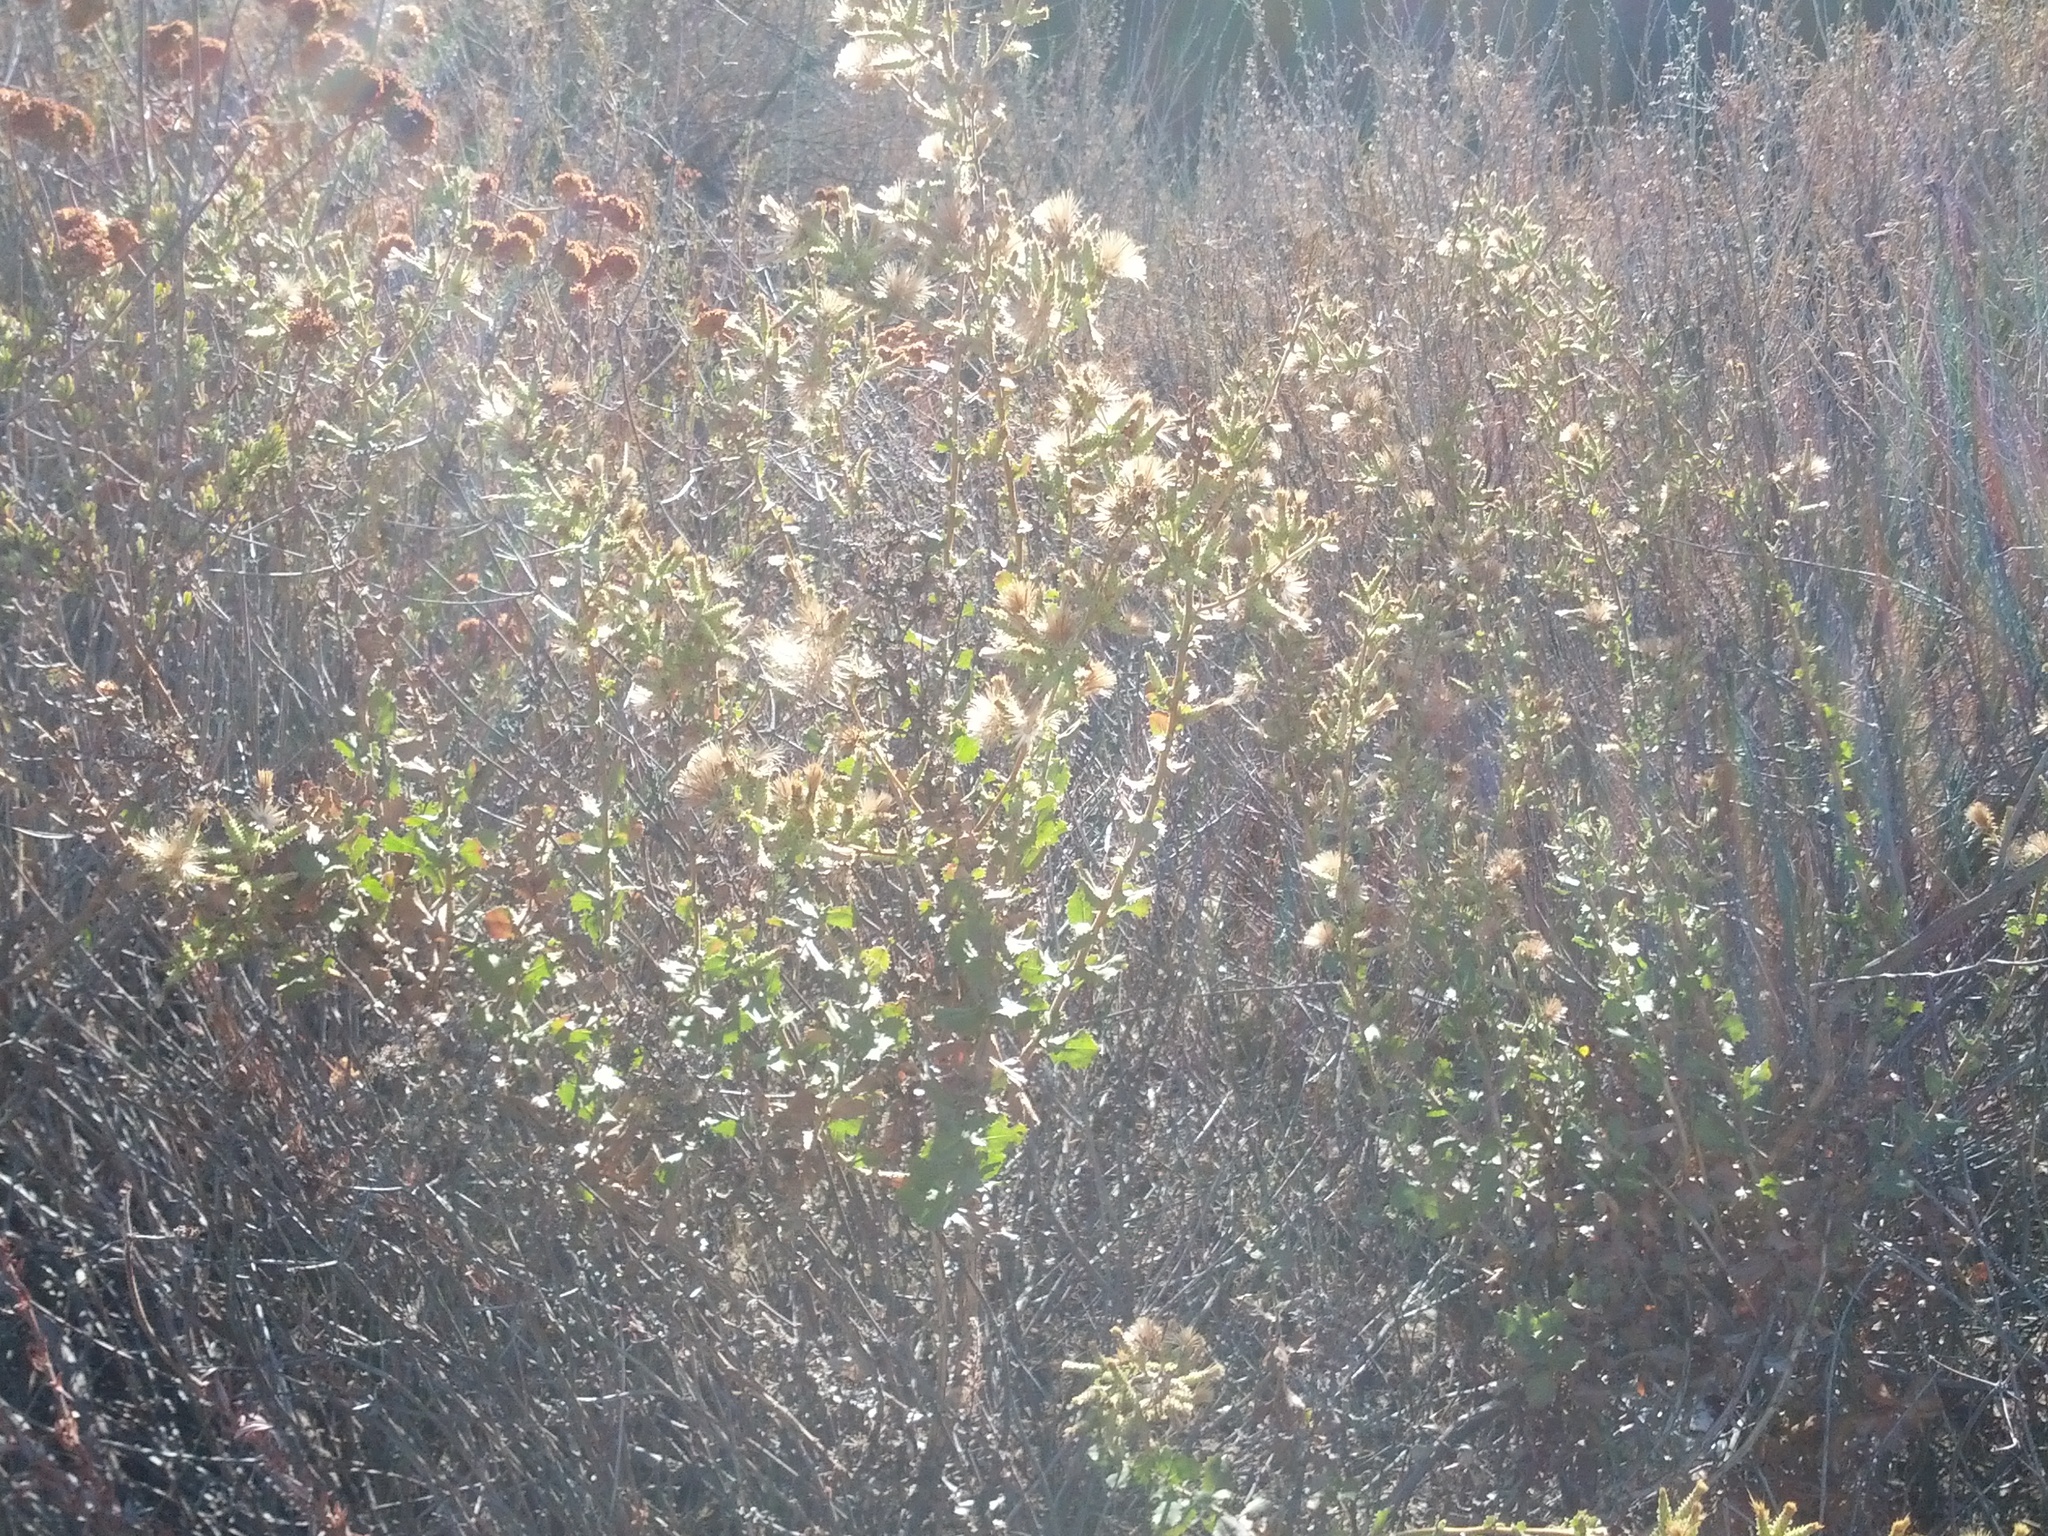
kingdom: Plantae
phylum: Tracheophyta
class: Magnoliopsida
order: Asterales
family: Asteraceae
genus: Hazardia
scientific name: Hazardia squarrosa
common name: Saw-tooth goldenbush
